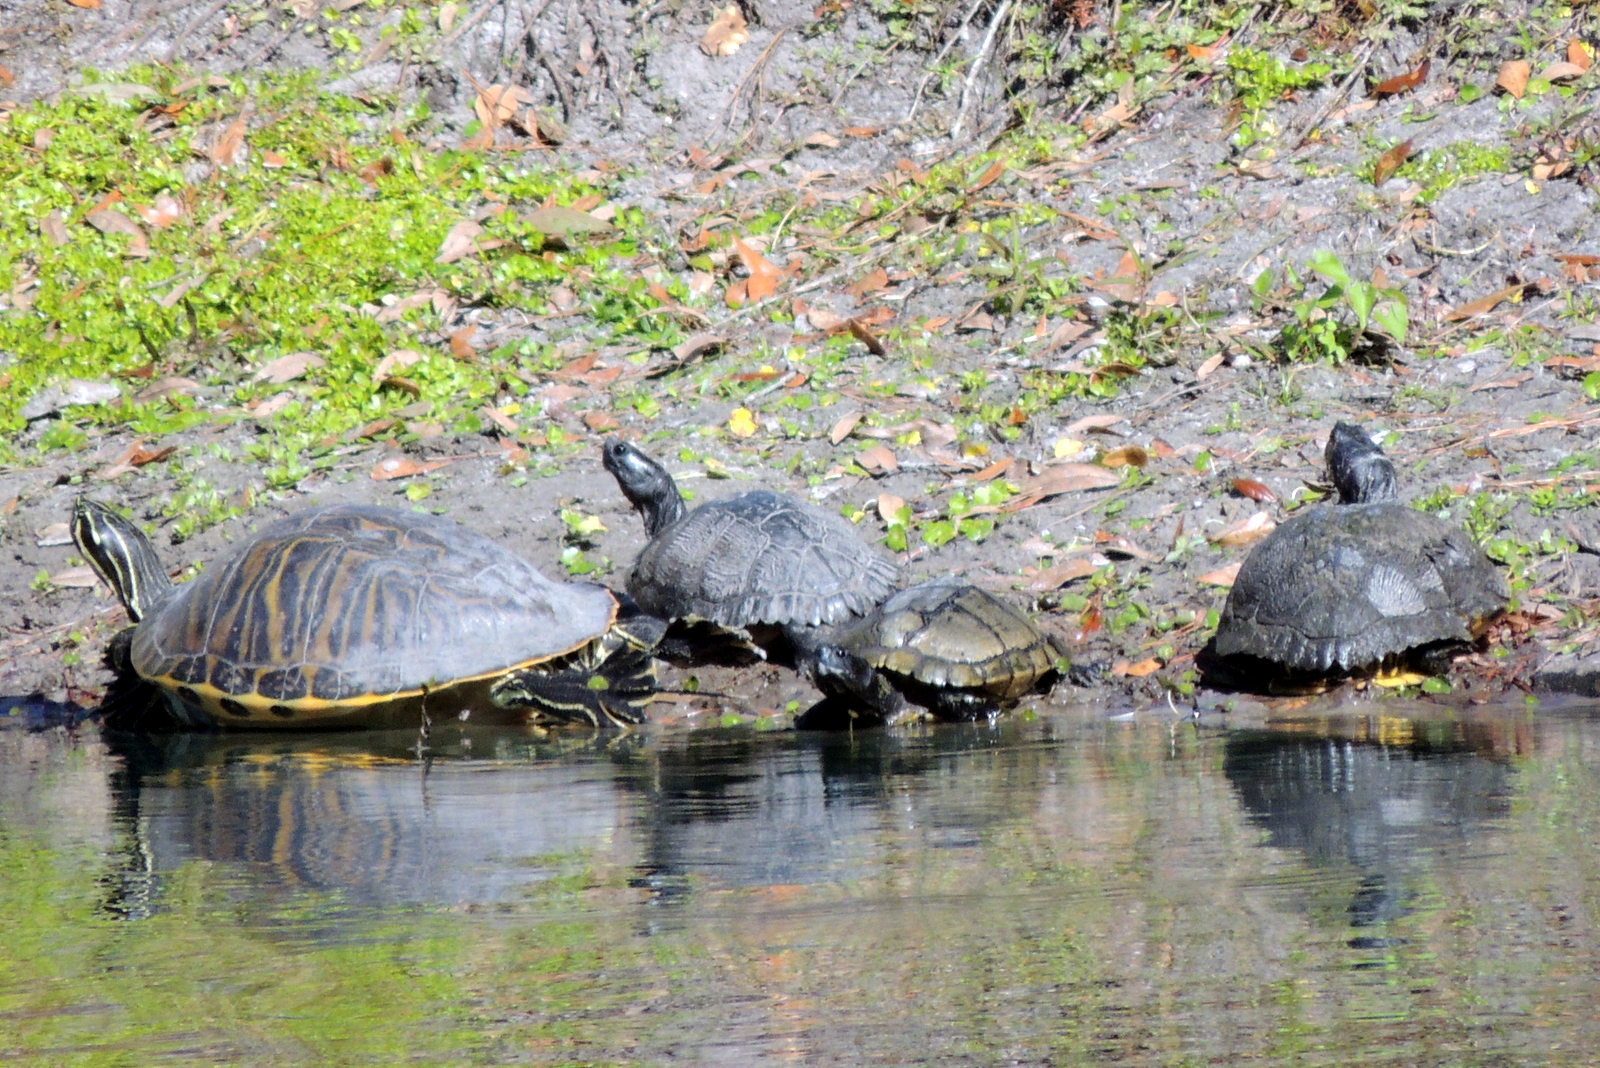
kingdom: Animalia
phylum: Chordata
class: Testudines
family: Emydidae
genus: Trachemys
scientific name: Trachemys scripta
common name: Slider
